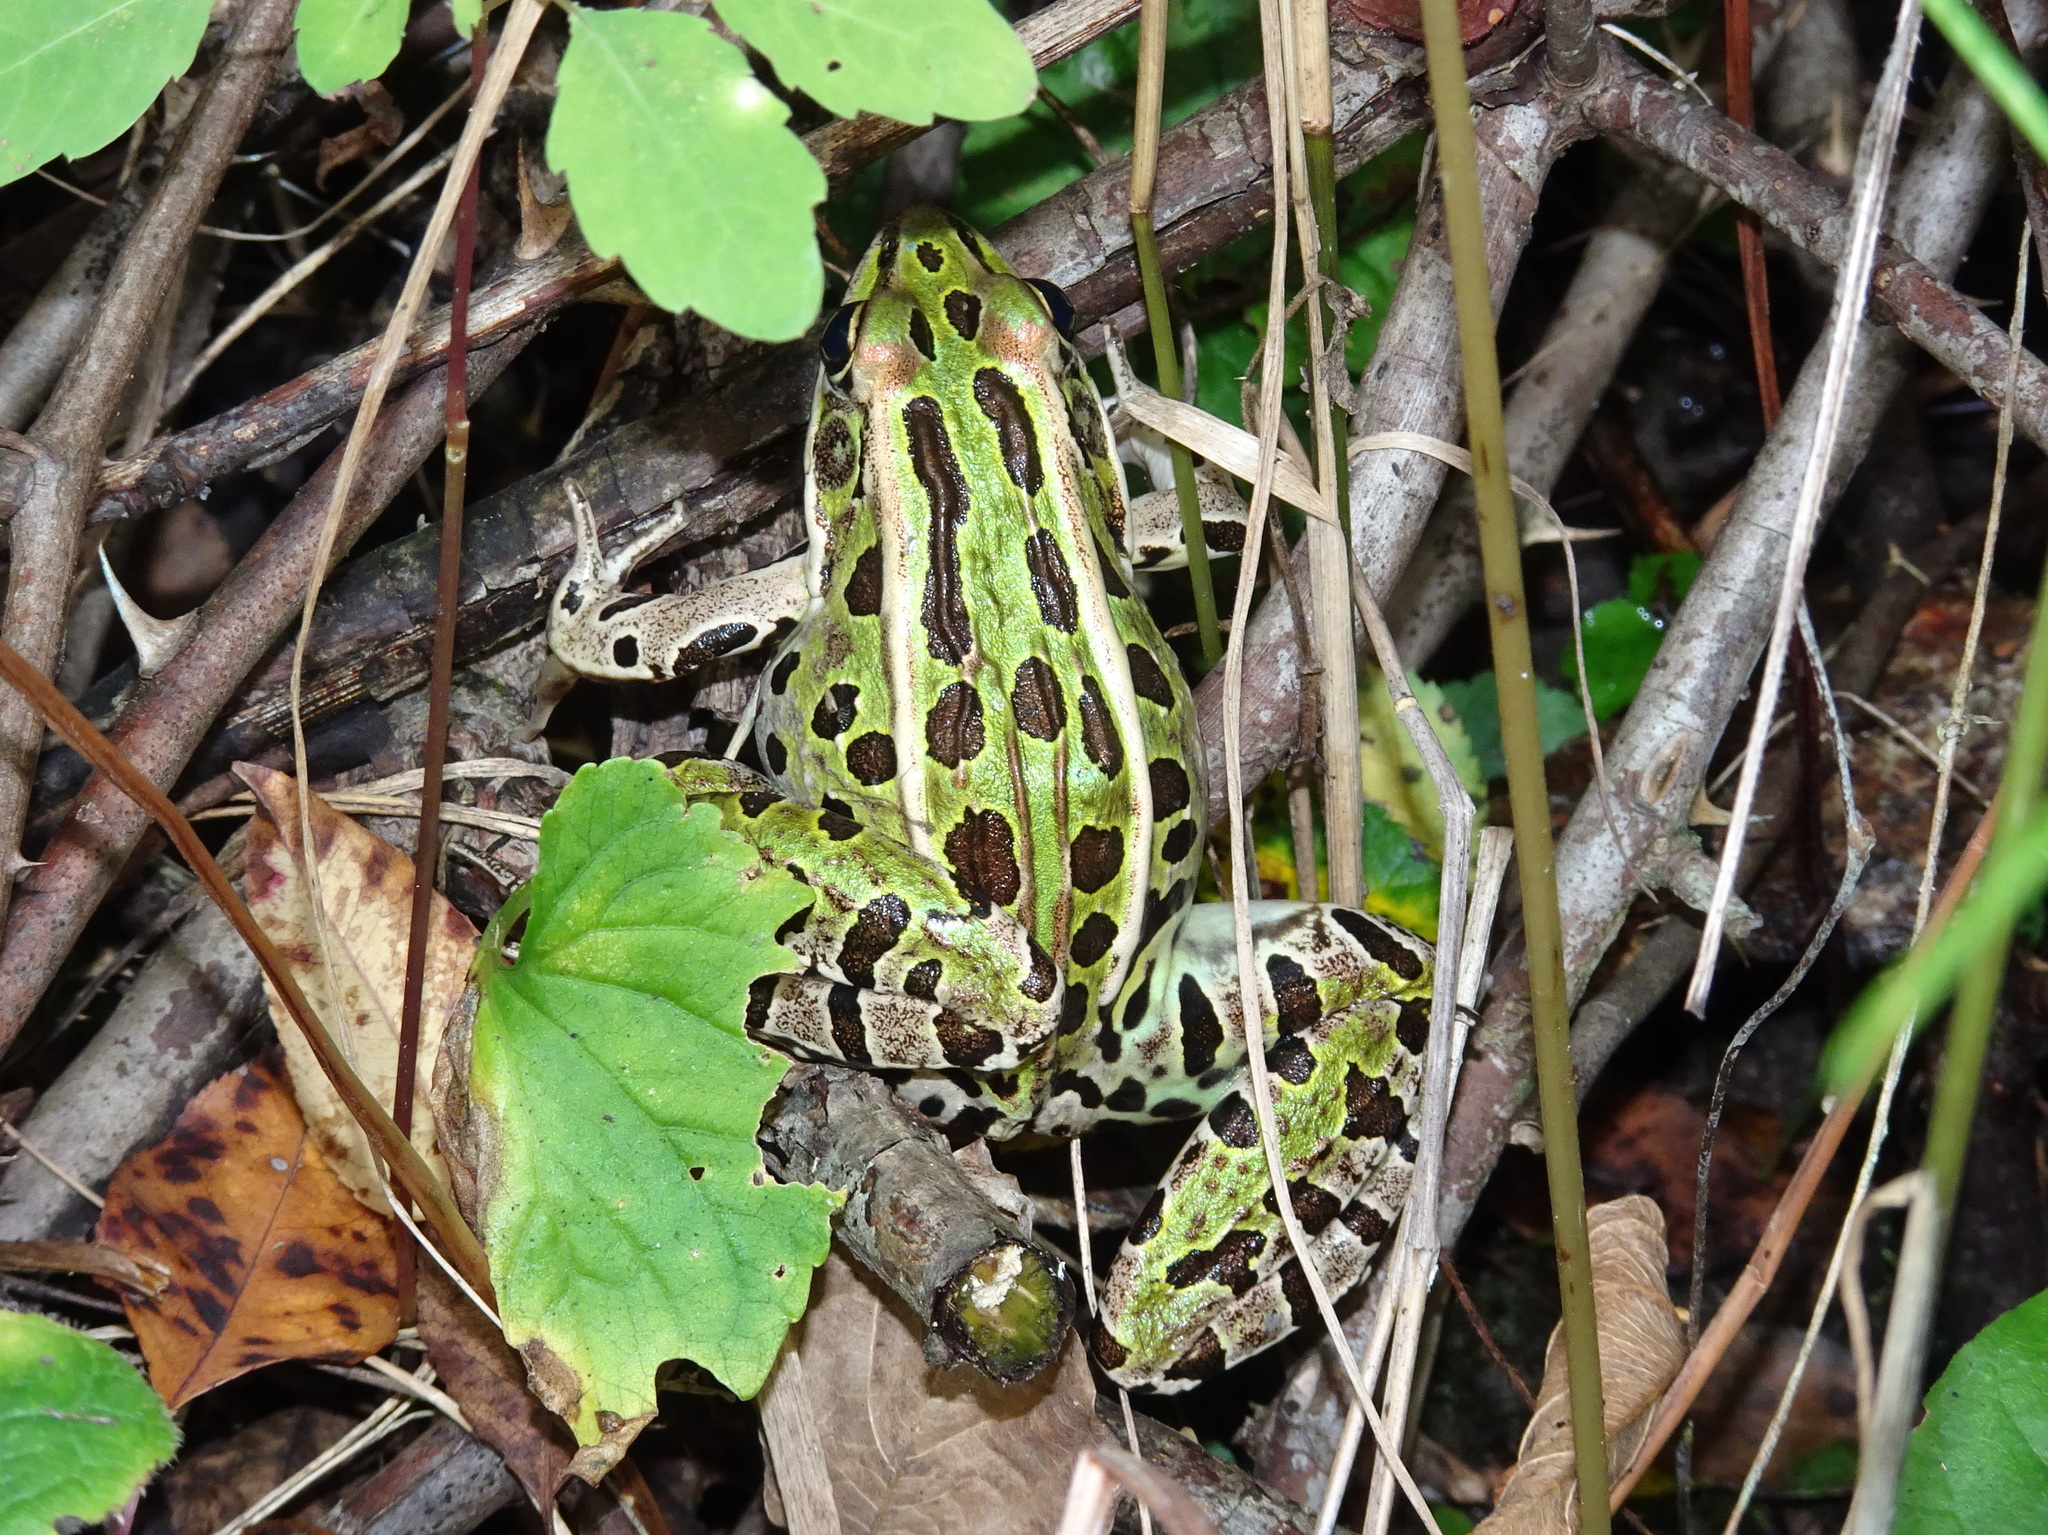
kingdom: Animalia
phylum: Chordata
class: Amphibia
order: Anura
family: Ranidae
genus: Lithobates
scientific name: Lithobates pipiens
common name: Northern leopard frog
